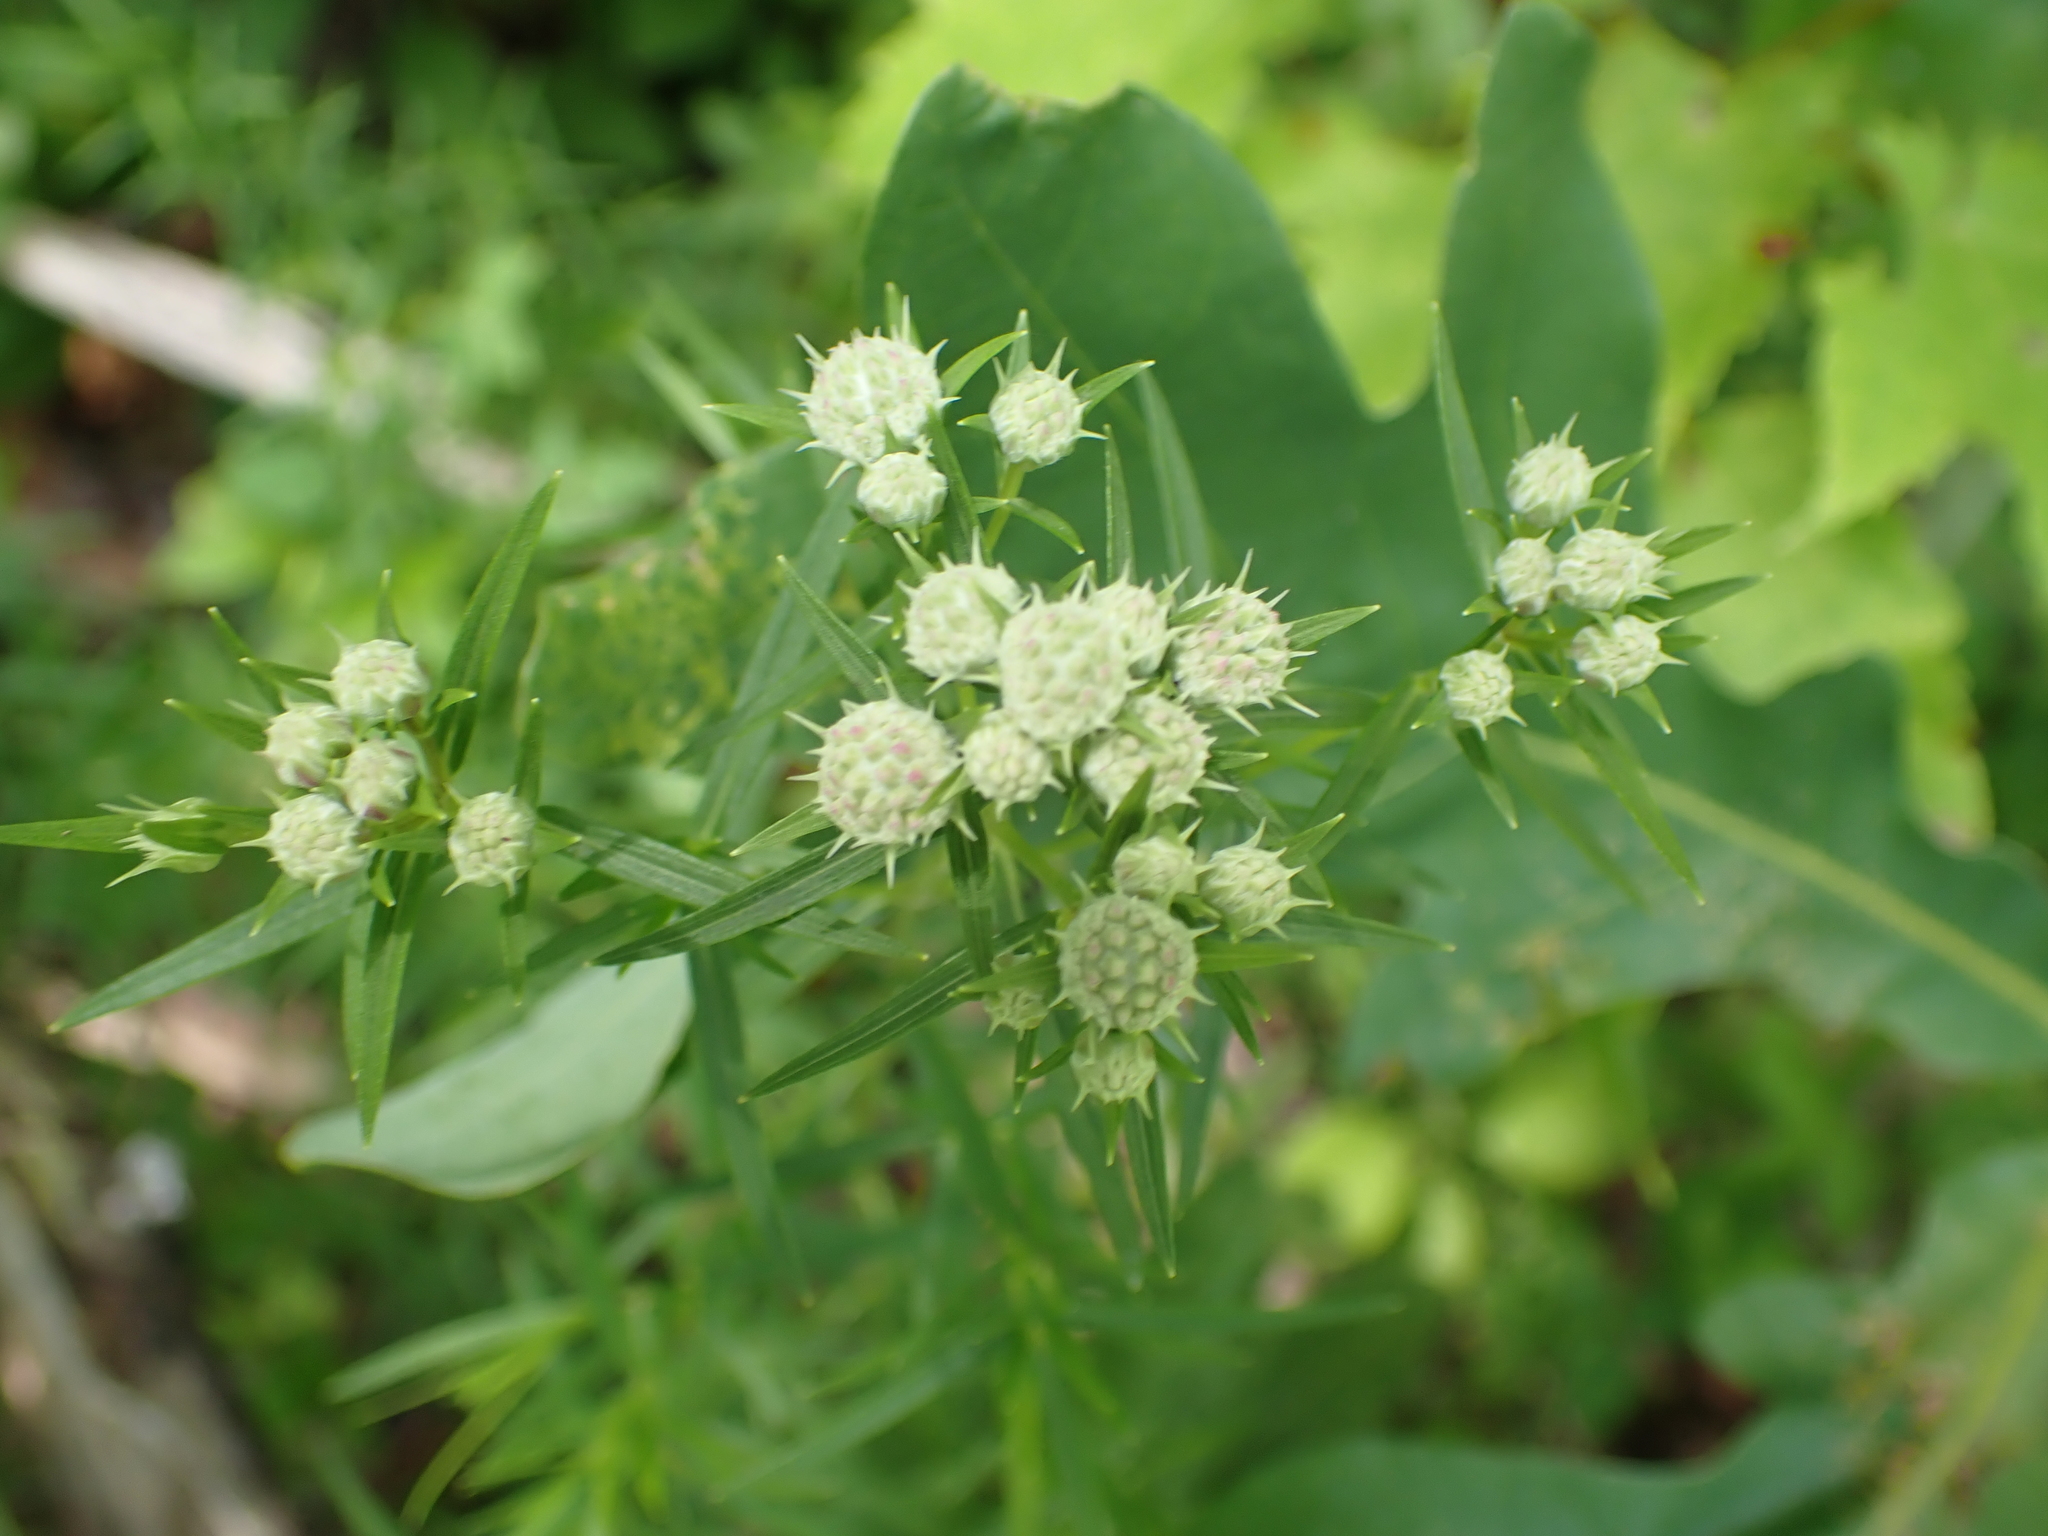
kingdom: Plantae
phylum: Tracheophyta
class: Magnoliopsida
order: Lamiales
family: Lamiaceae
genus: Pycnanthemum
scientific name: Pycnanthemum tenuifolium
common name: Narrow-leaf mountain-mint
